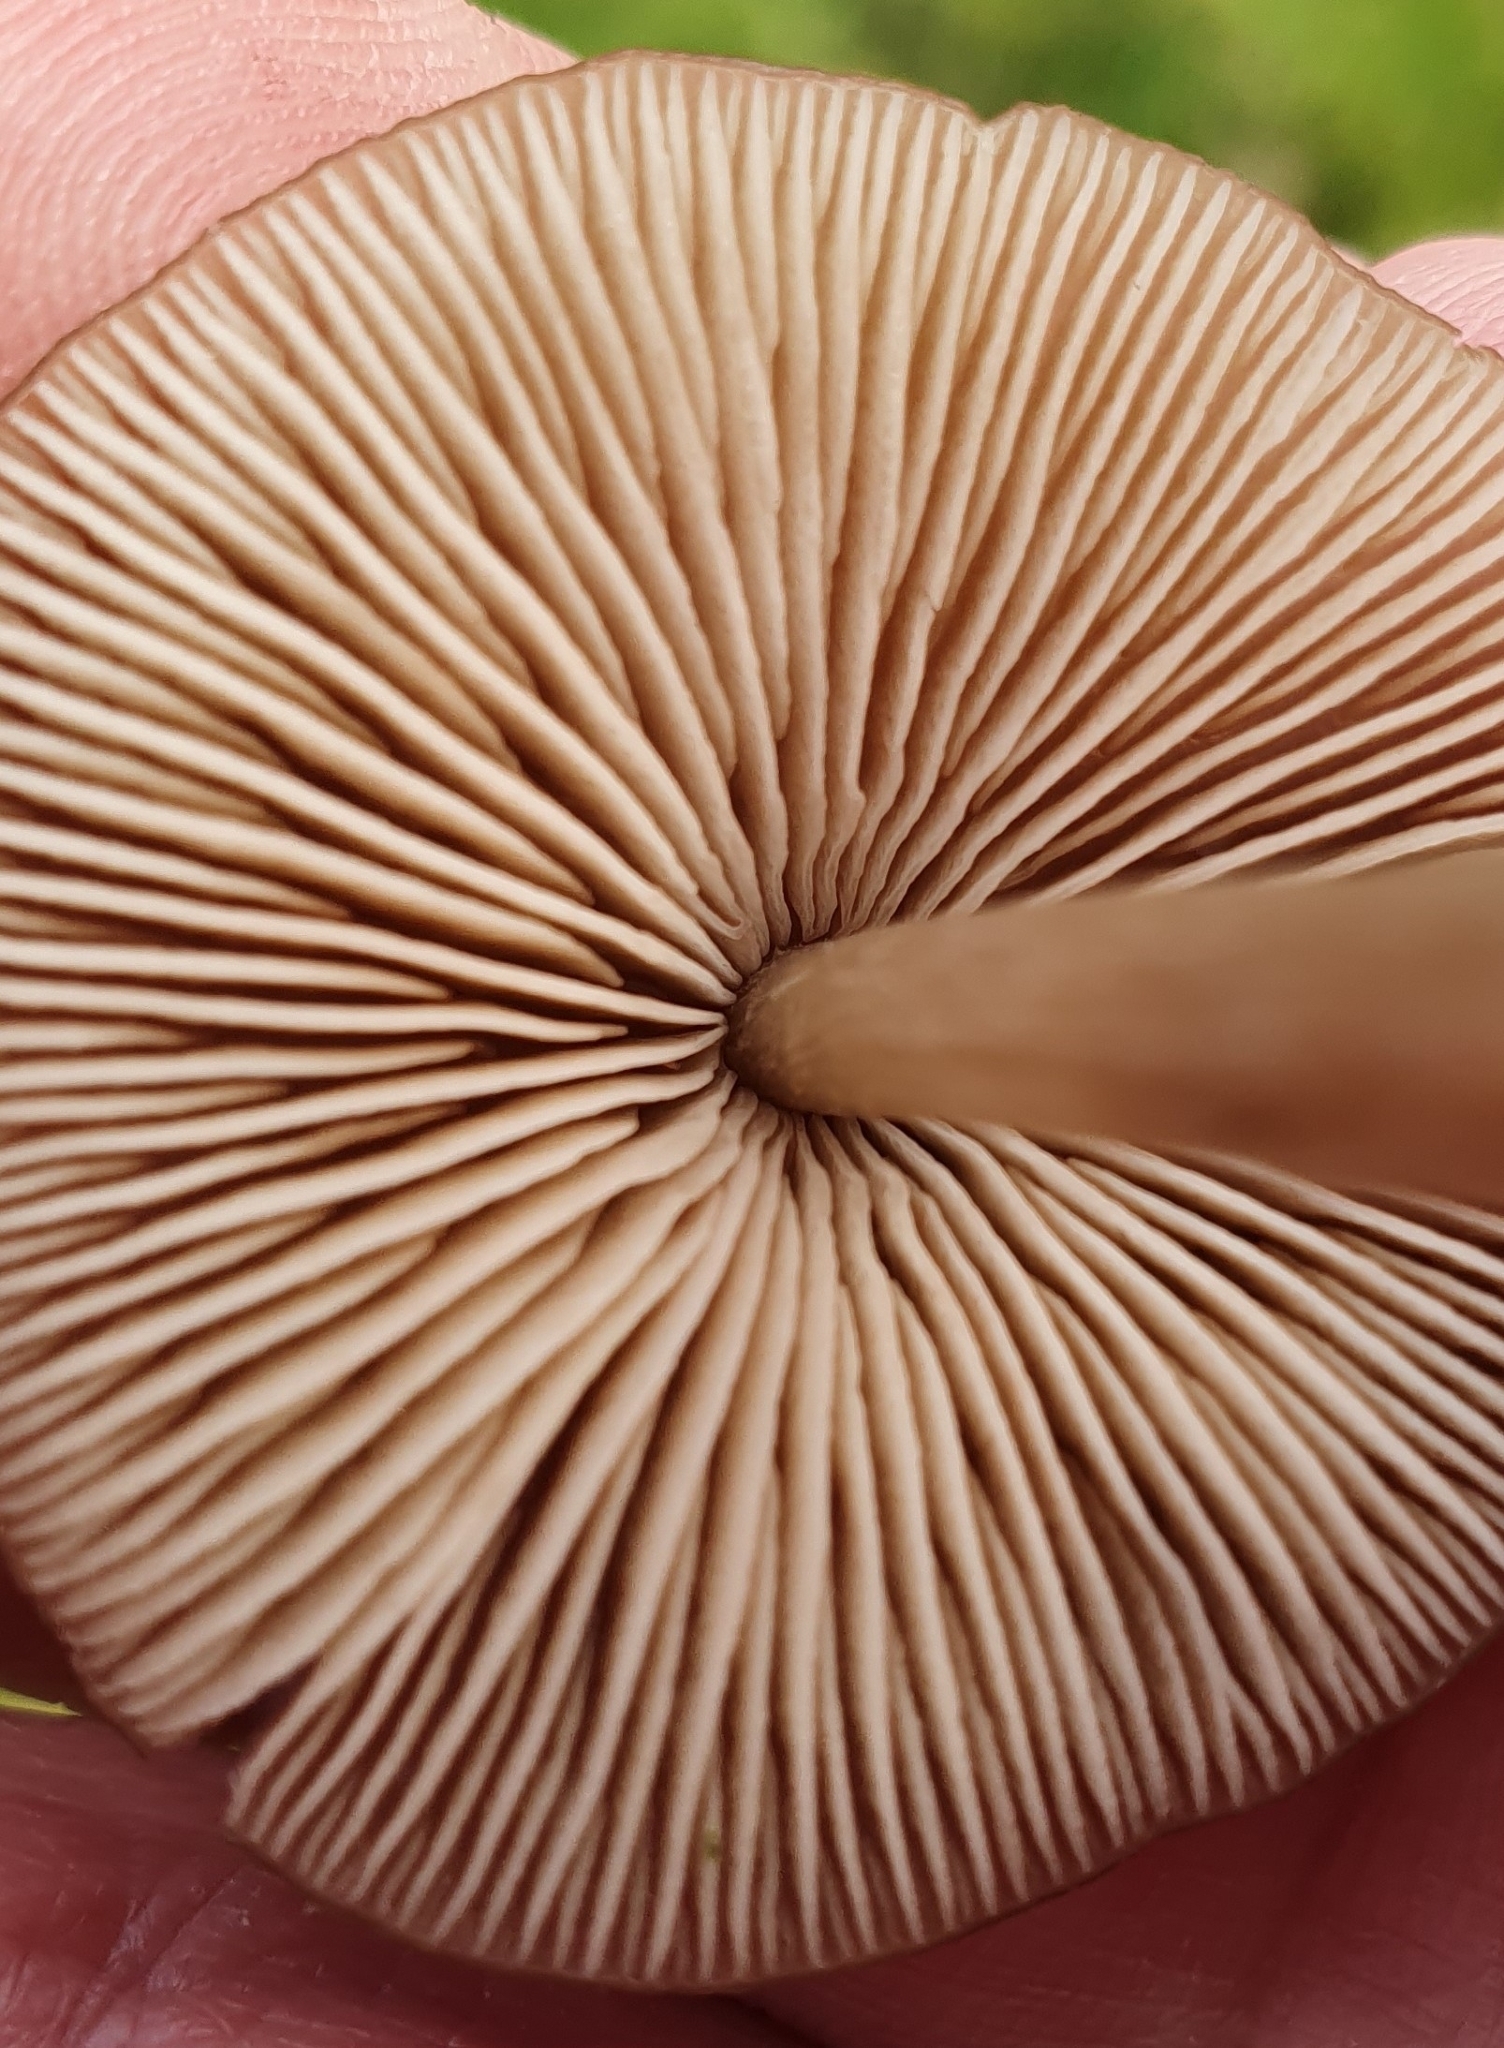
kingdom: Fungi
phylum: Basidiomycota
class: Agaricomycetes
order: Agaricales
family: Entolomataceae
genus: Entoloma
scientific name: Entoloma conferendum
